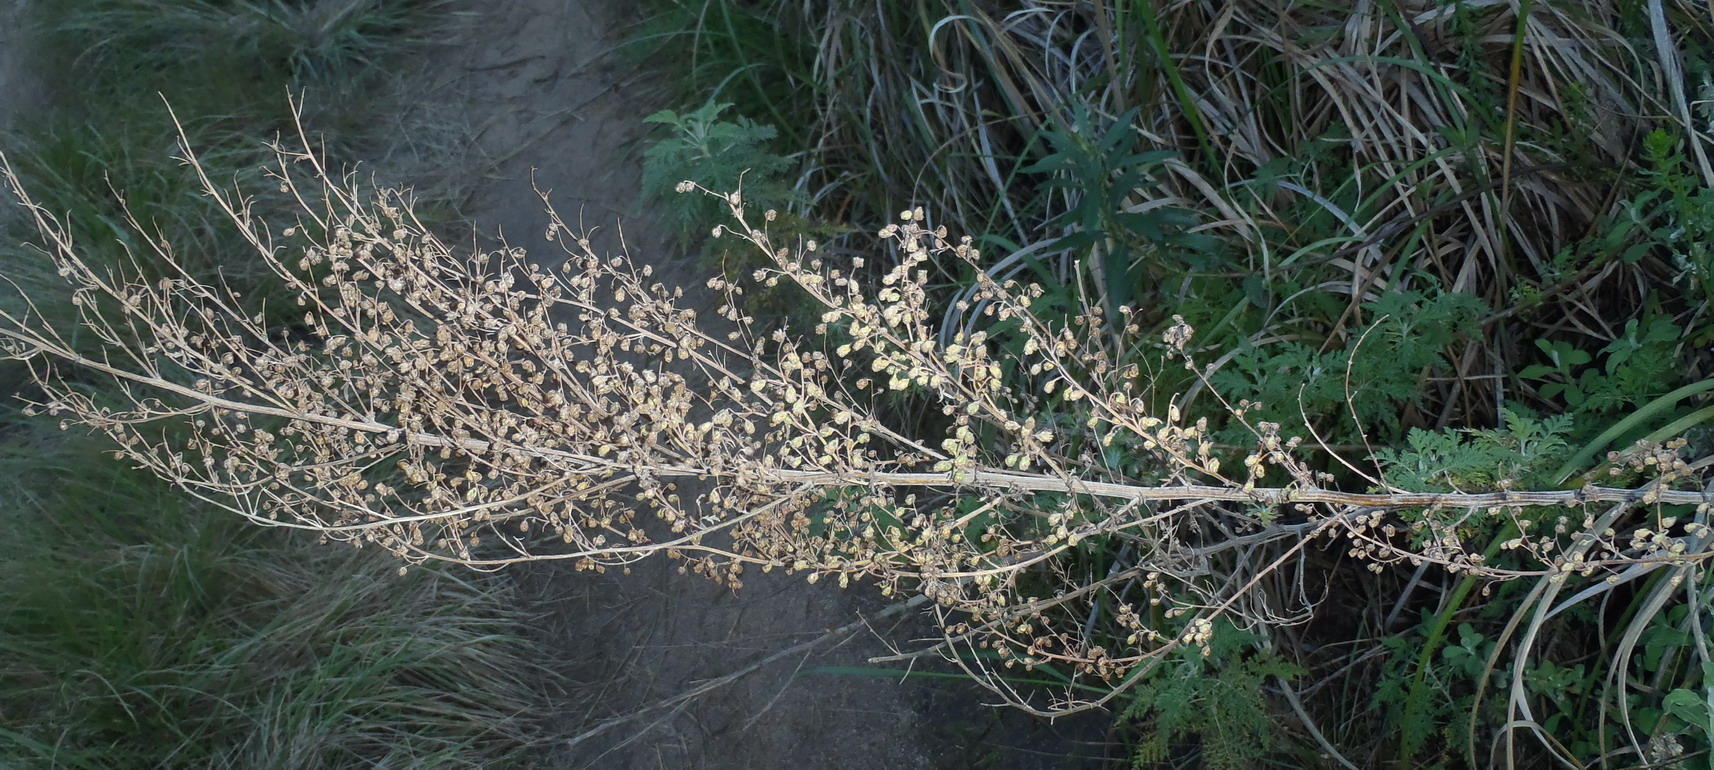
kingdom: Plantae
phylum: Tracheophyta
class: Magnoliopsida
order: Asterales
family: Asteraceae
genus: Artemisia
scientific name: Artemisia afra
